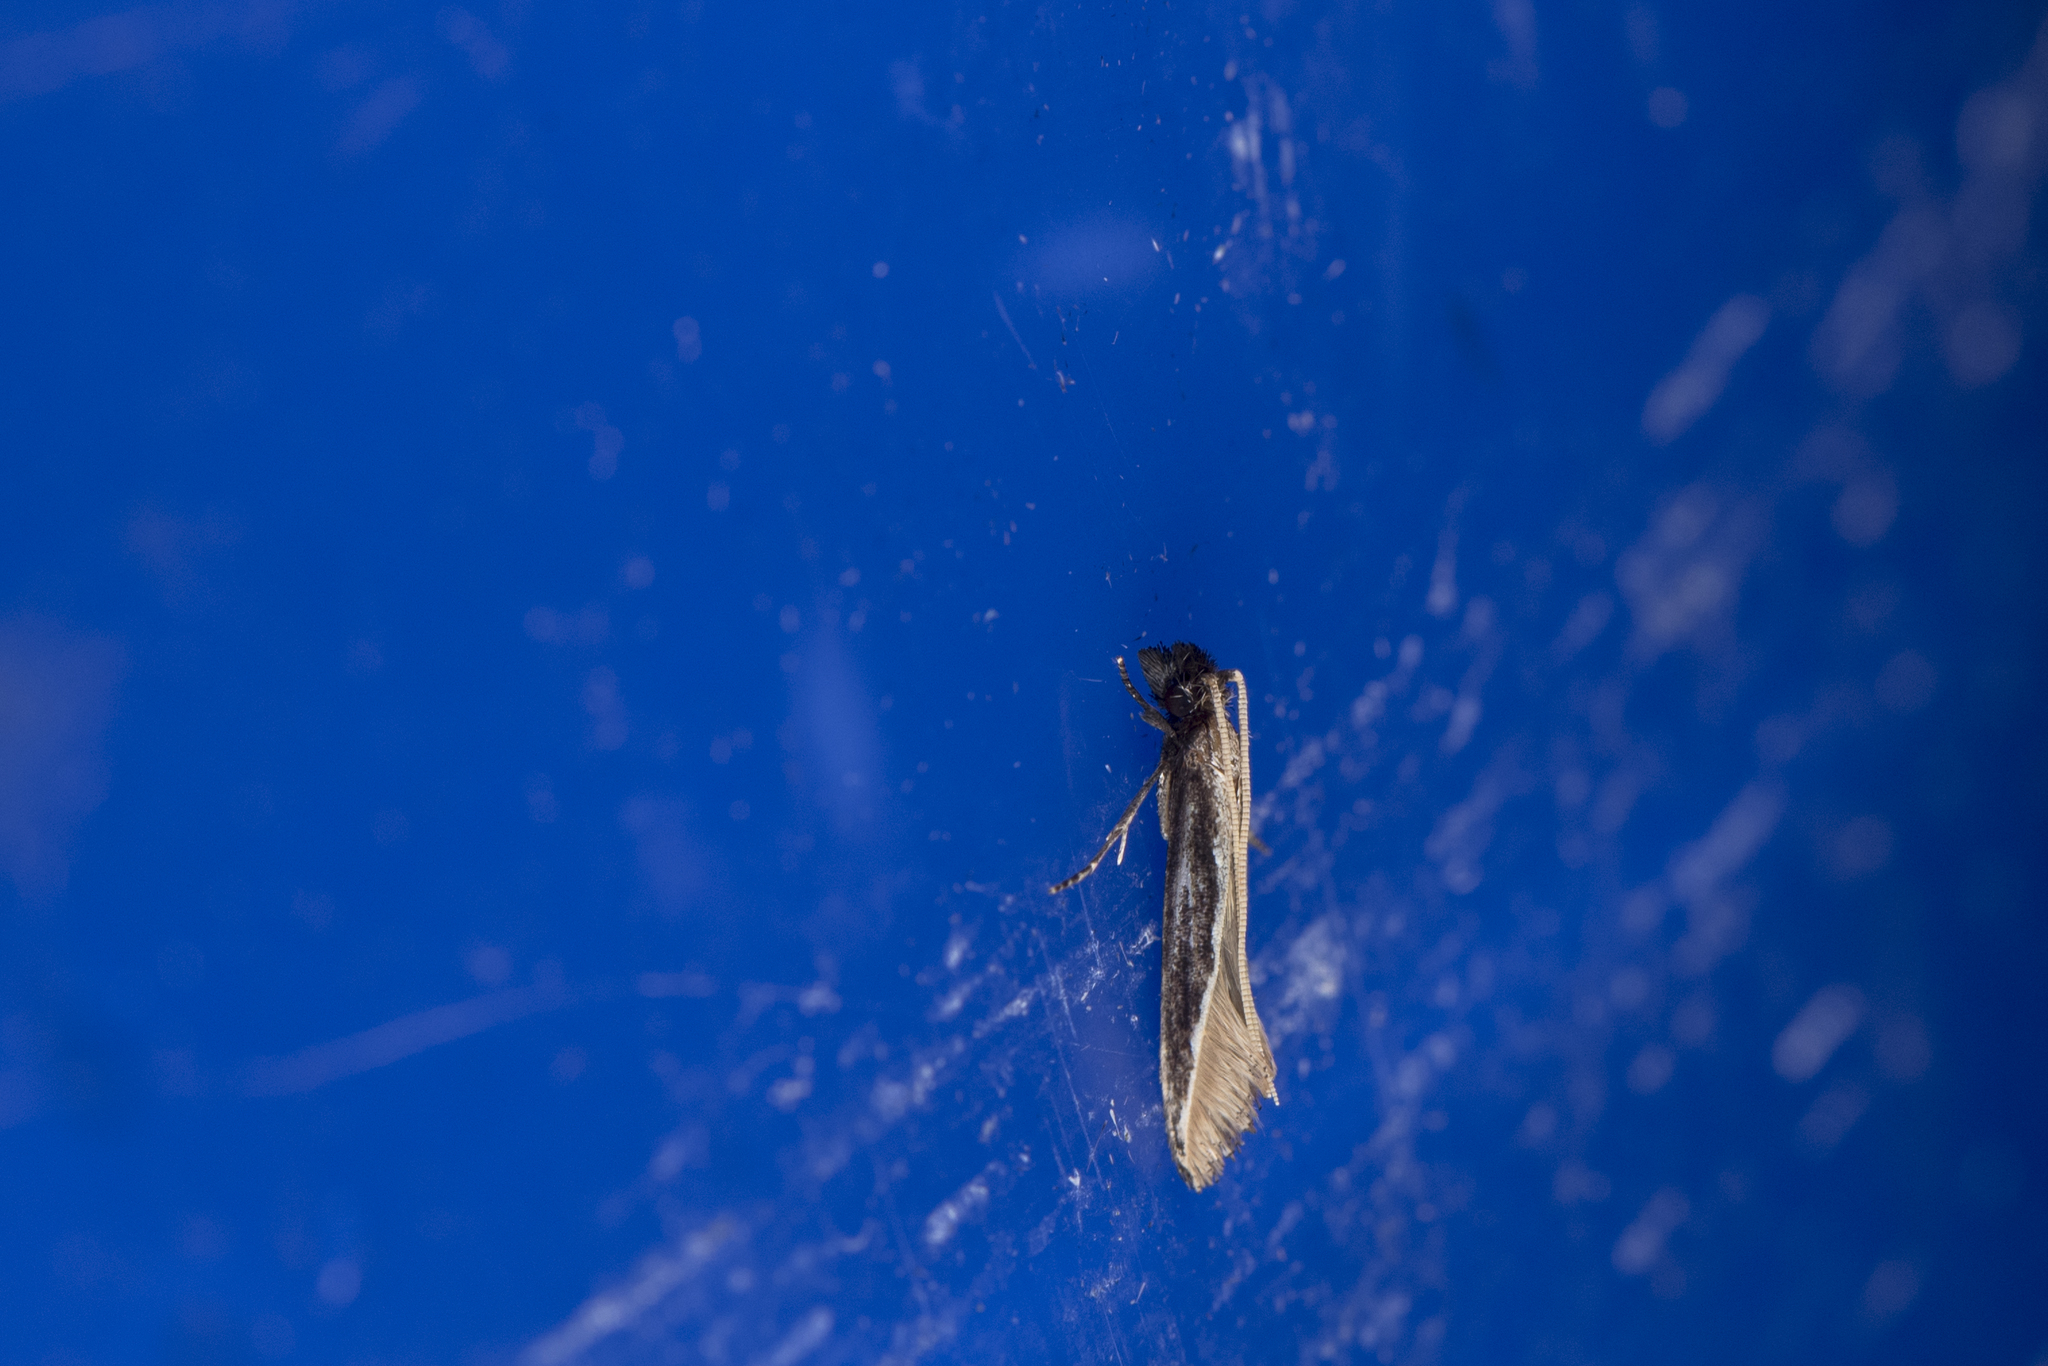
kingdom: Animalia
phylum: Arthropoda
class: Insecta
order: Lepidoptera
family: Tineidae
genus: Pyloetis
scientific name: Pyloetis mimosae
